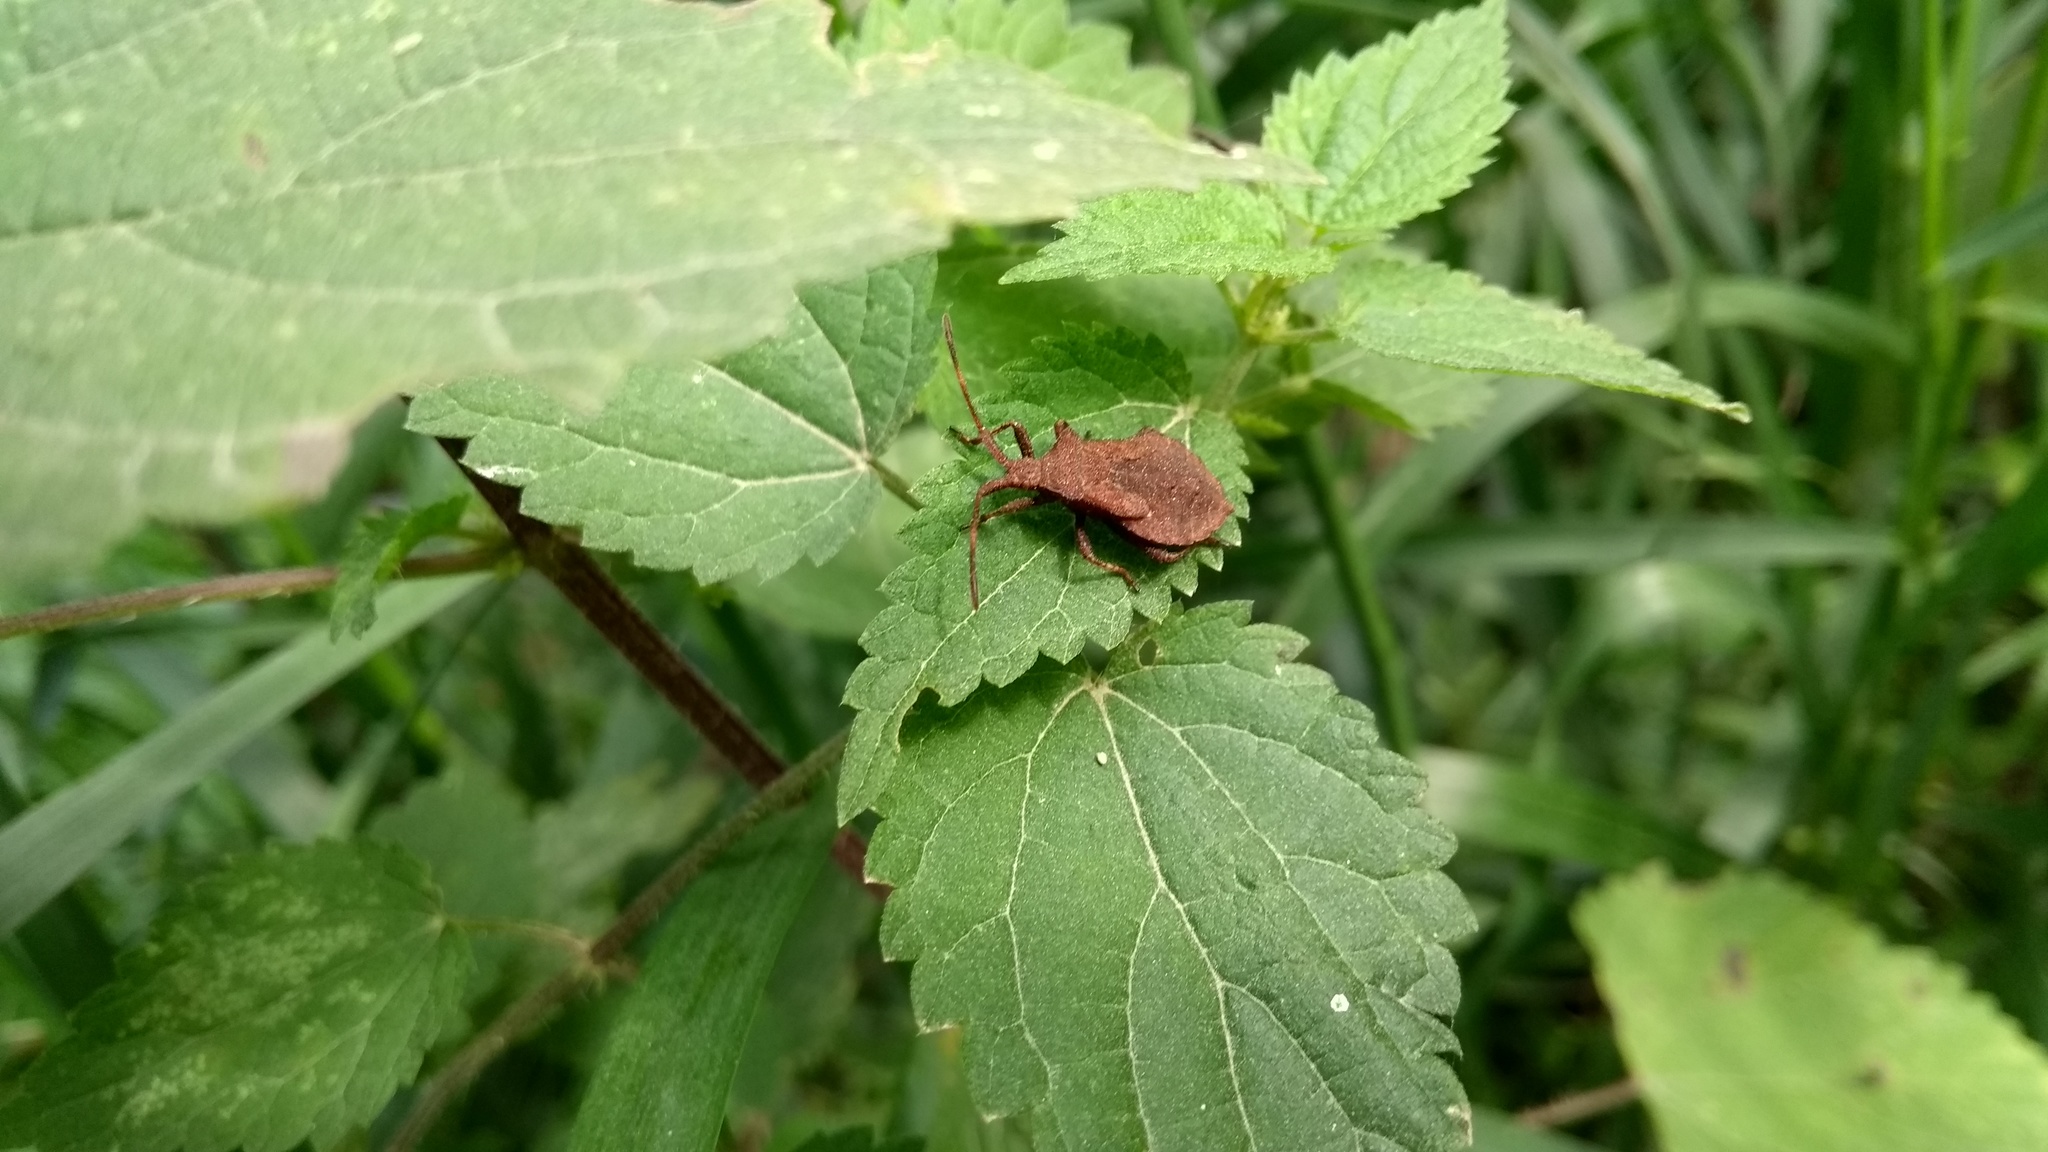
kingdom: Animalia
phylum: Arthropoda
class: Insecta
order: Hemiptera
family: Coreidae
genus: Coreus
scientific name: Coreus marginatus
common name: Dock bug
